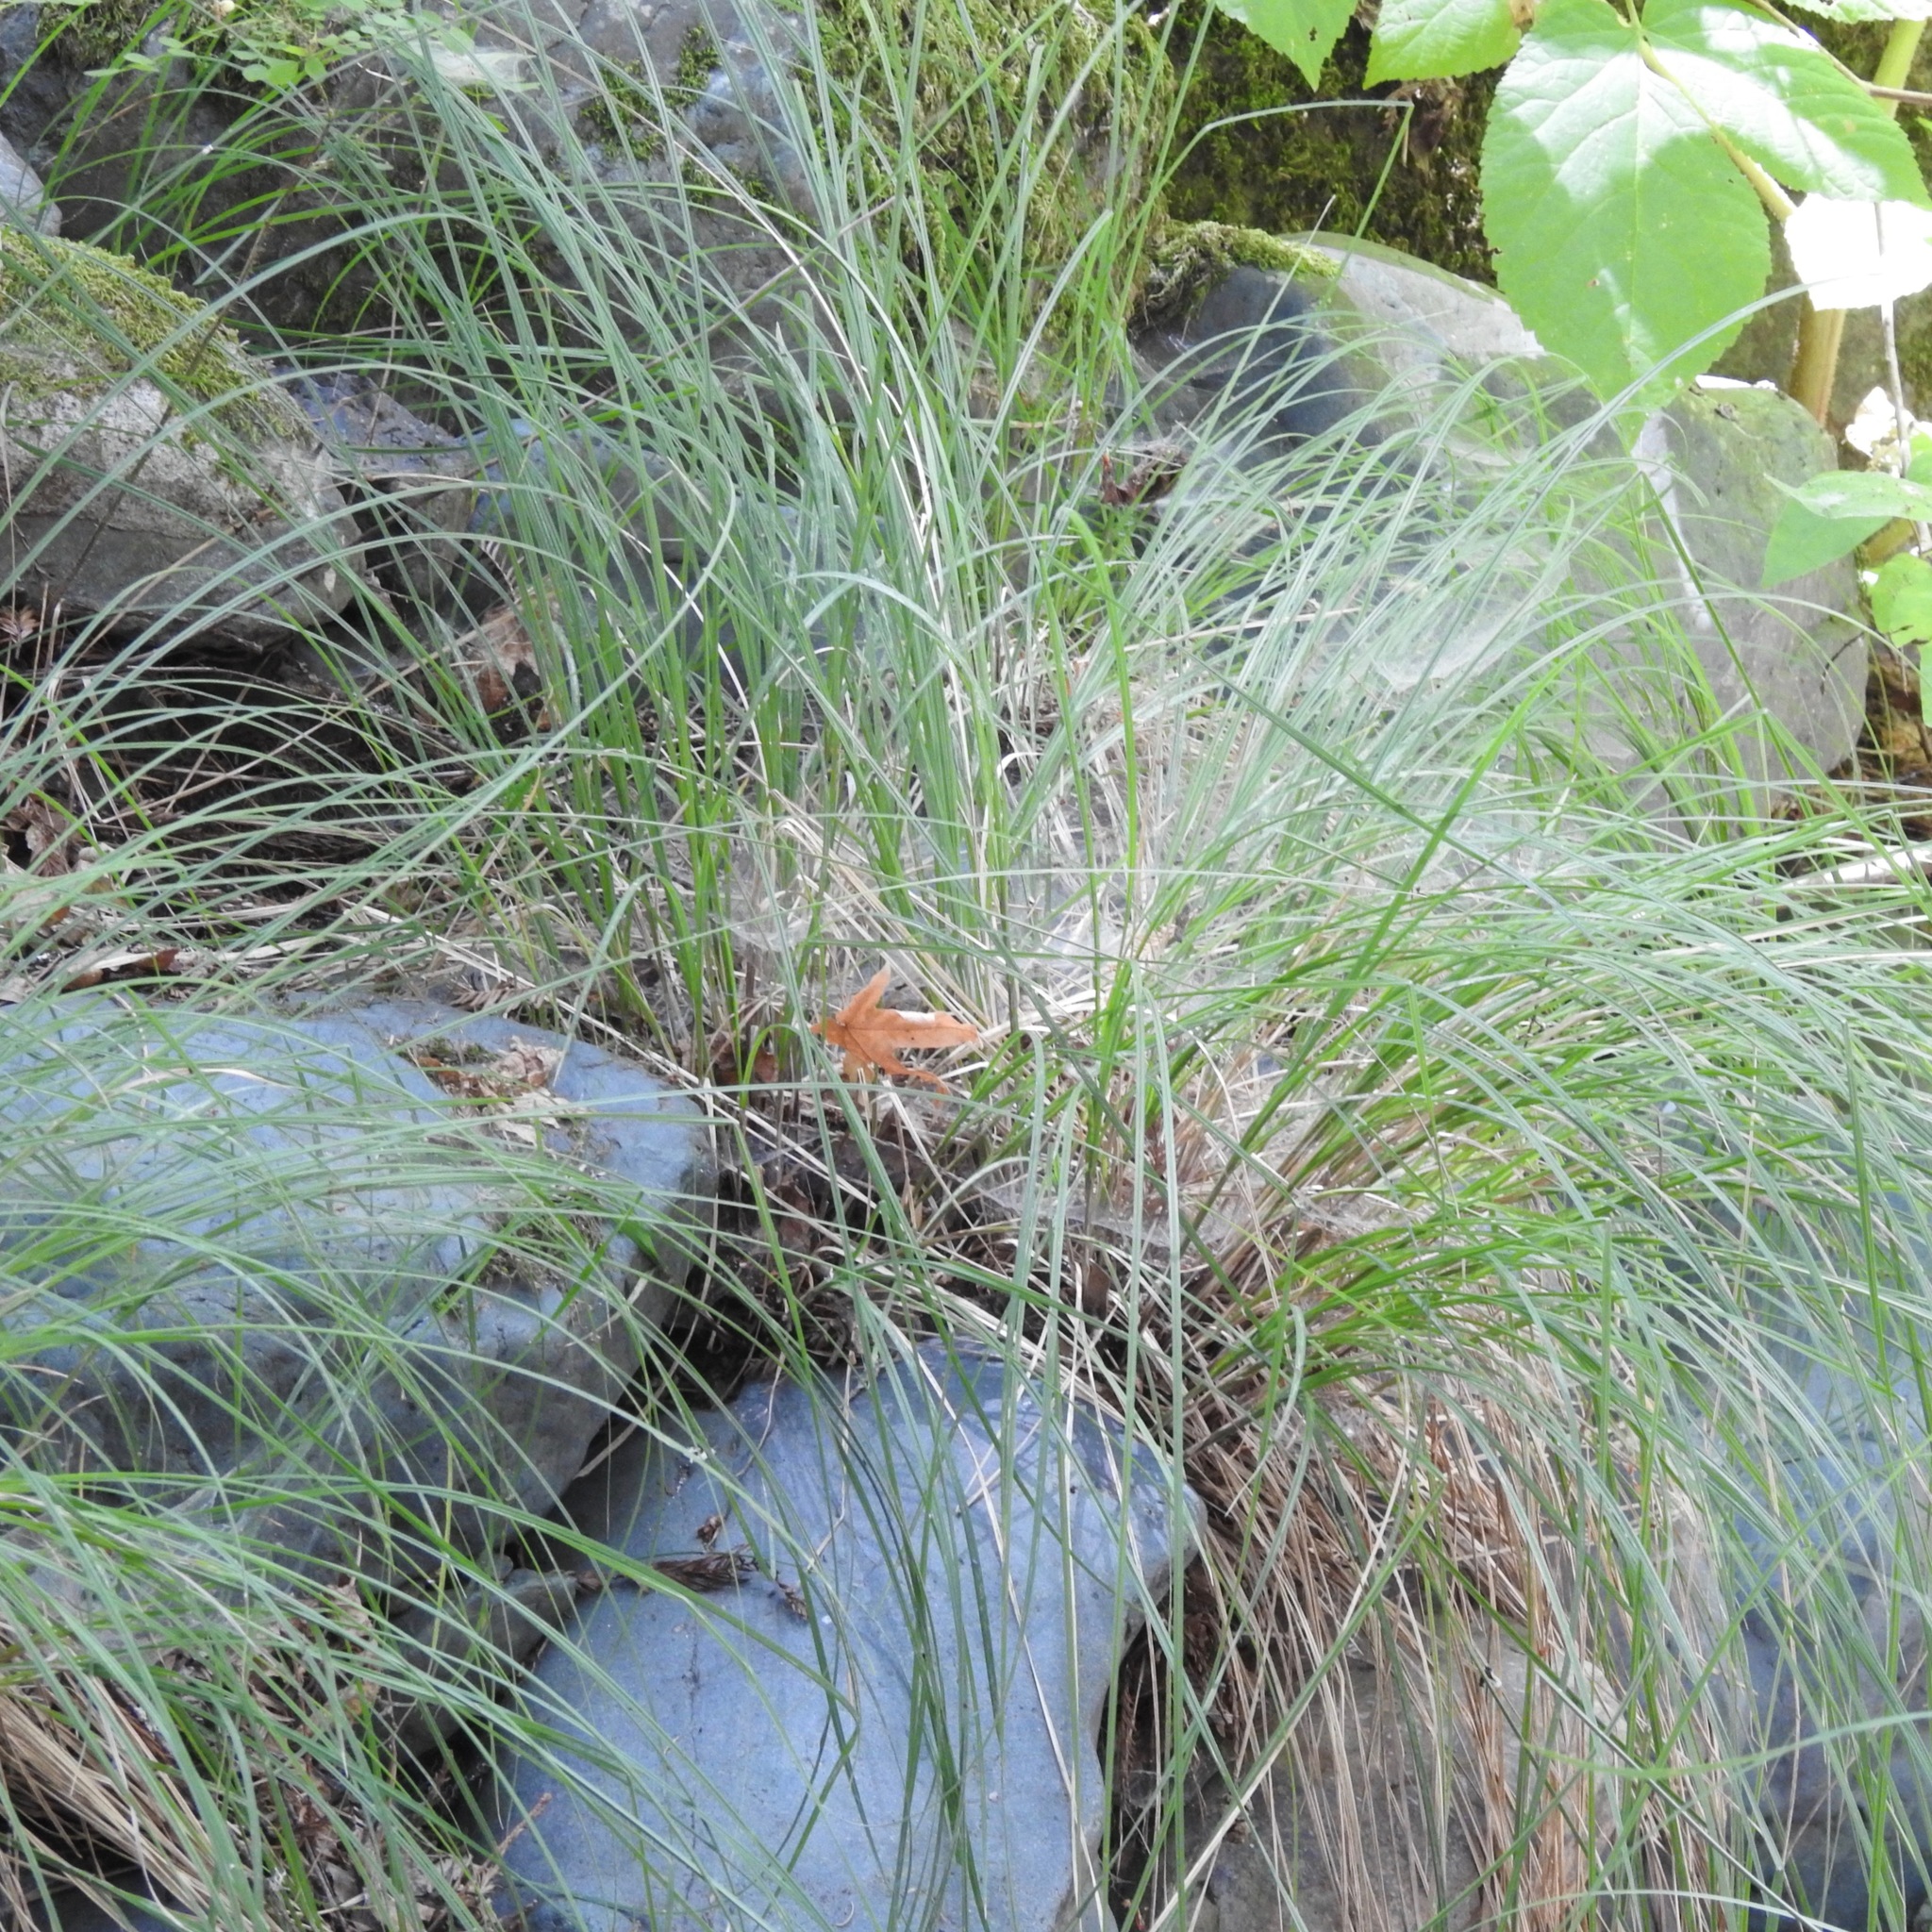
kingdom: Plantae
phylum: Tracheophyta
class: Liliopsida
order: Poales
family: Cyperaceae
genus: Carex
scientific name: Carex nudata
